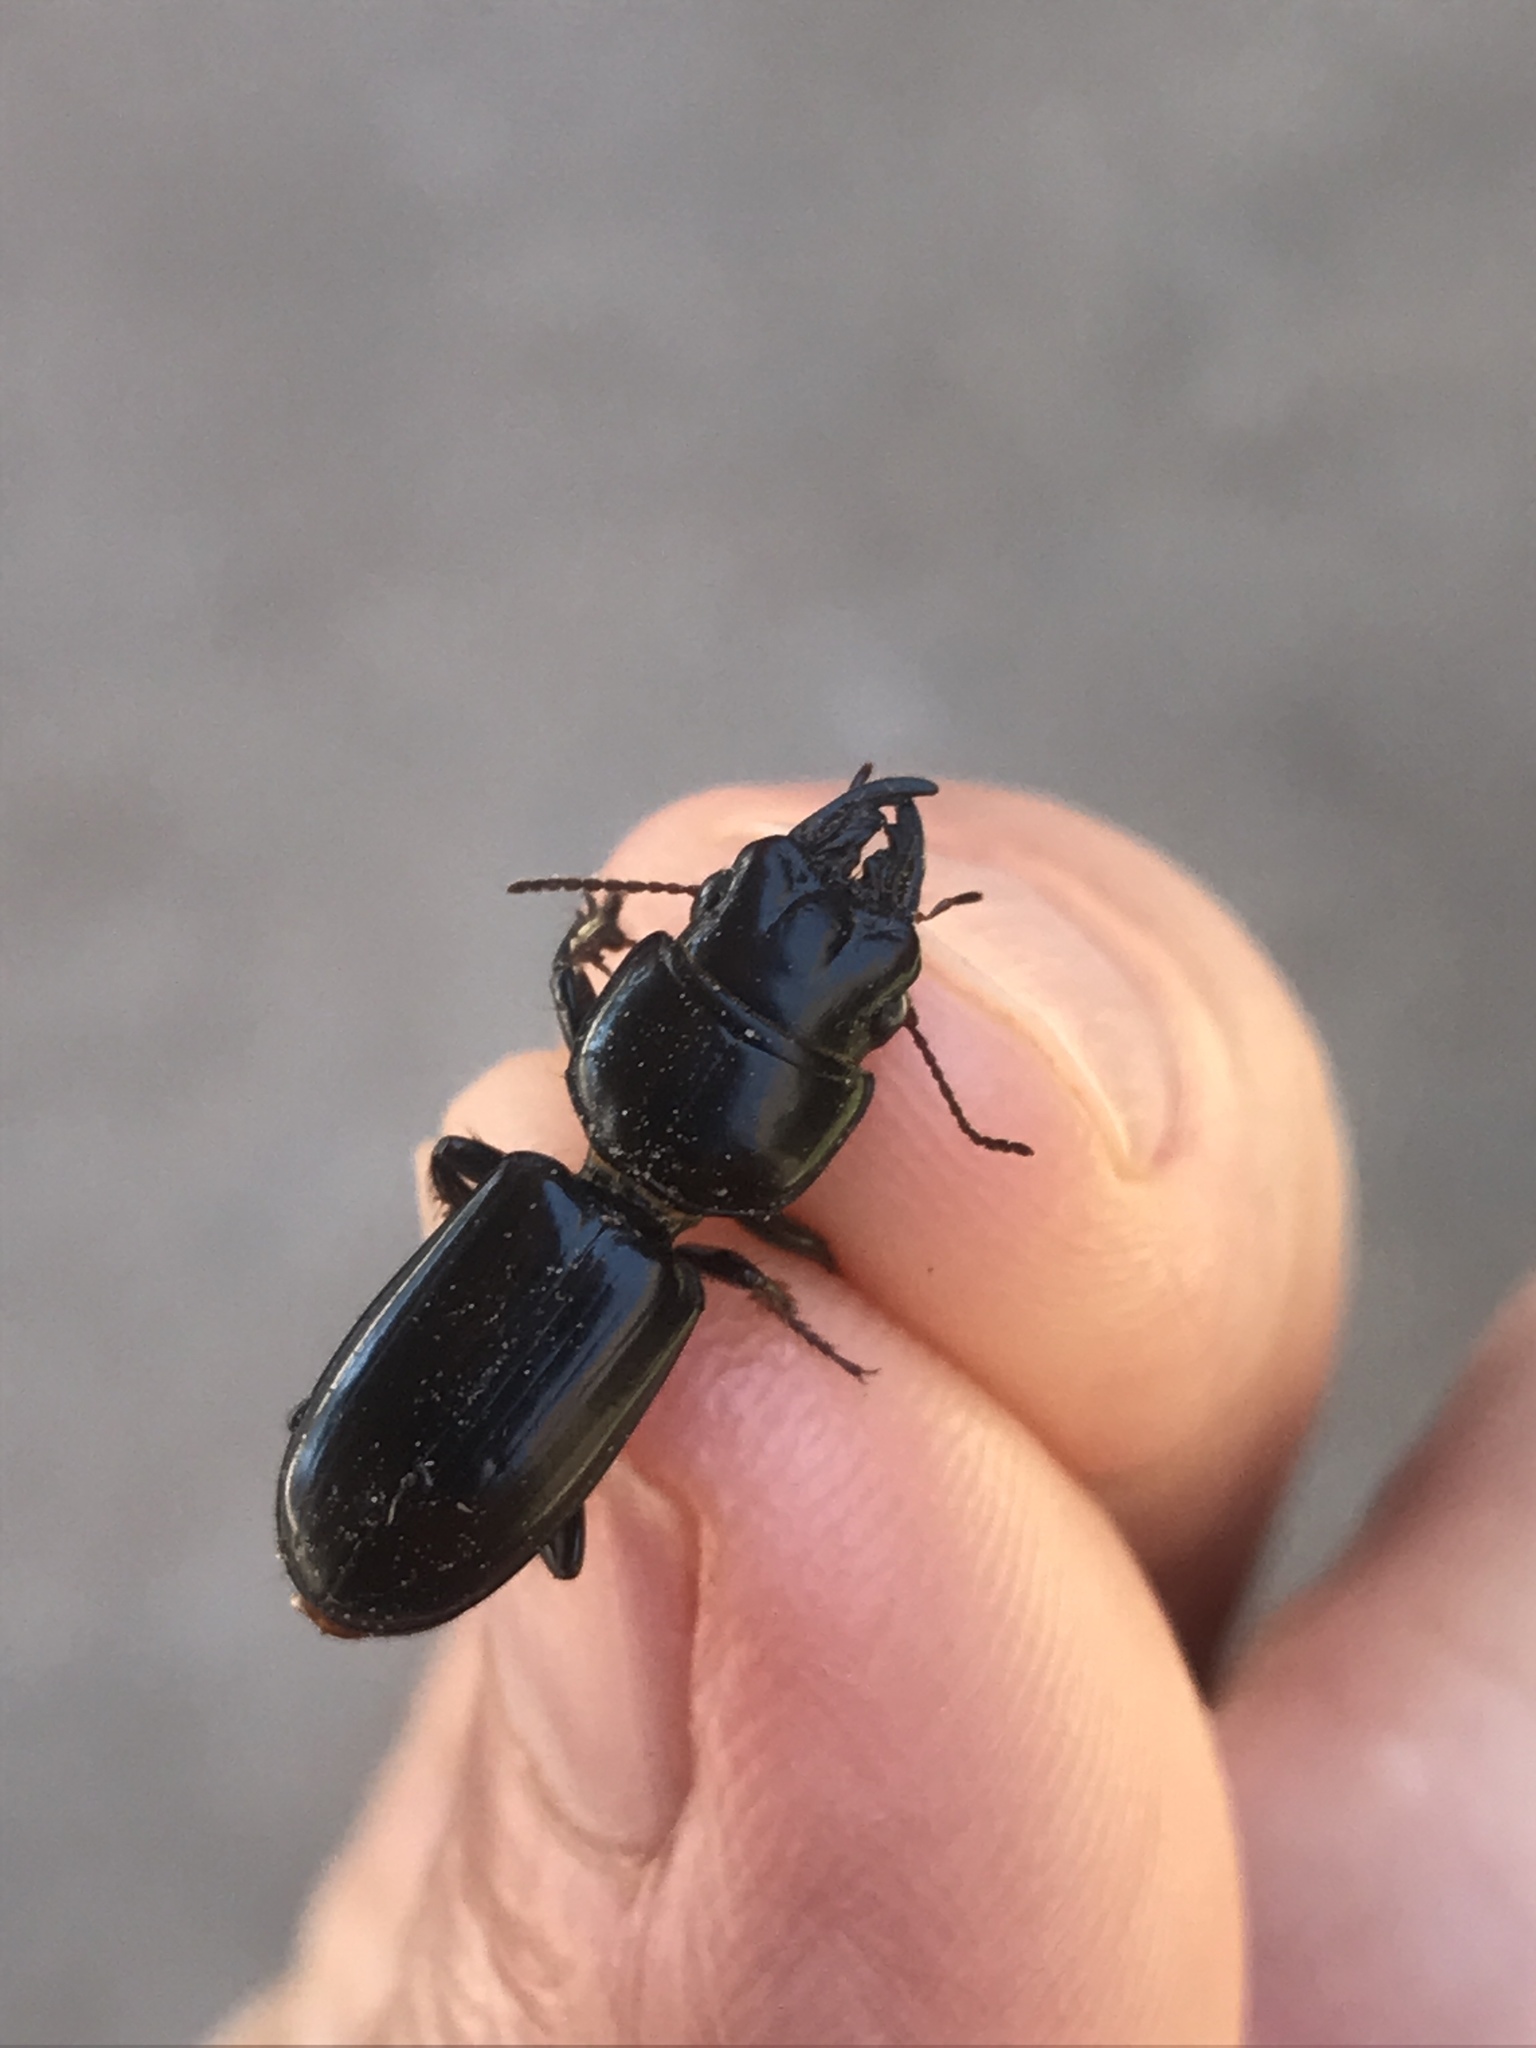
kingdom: Animalia
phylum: Arthropoda
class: Insecta
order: Coleoptera
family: Carabidae
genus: Scarites
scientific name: Scarites subterraneus
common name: Big-headed ground beetle
